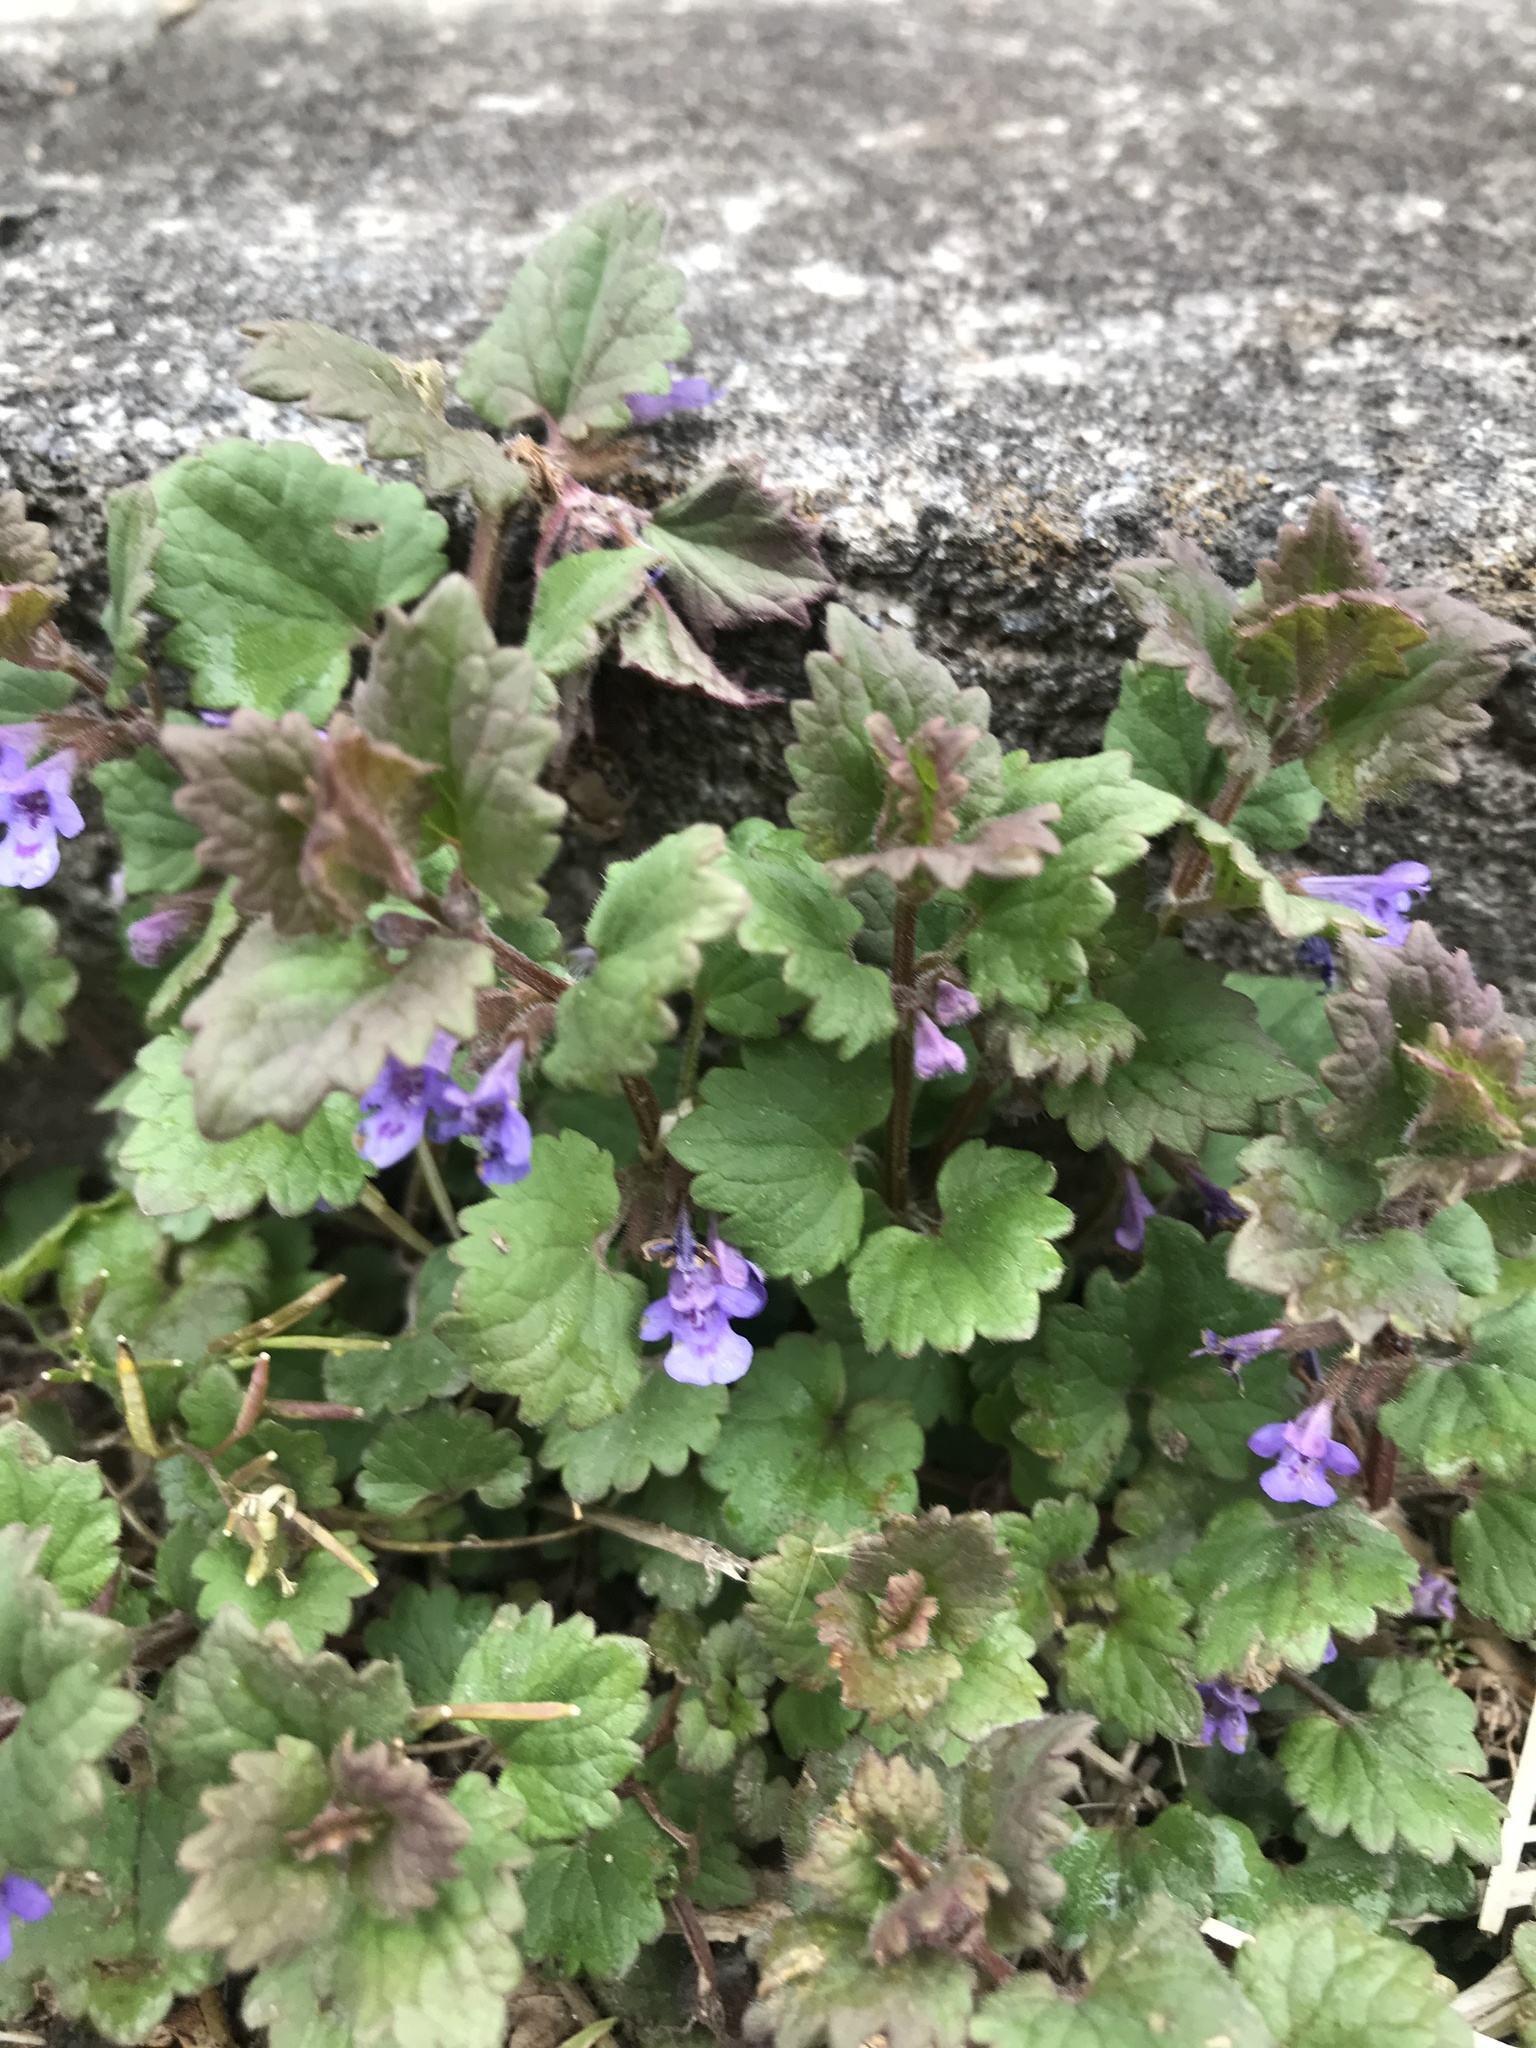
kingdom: Plantae
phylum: Tracheophyta
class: Magnoliopsida
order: Lamiales
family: Lamiaceae
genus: Glechoma
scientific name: Glechoma hederacea
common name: Ground ivy
